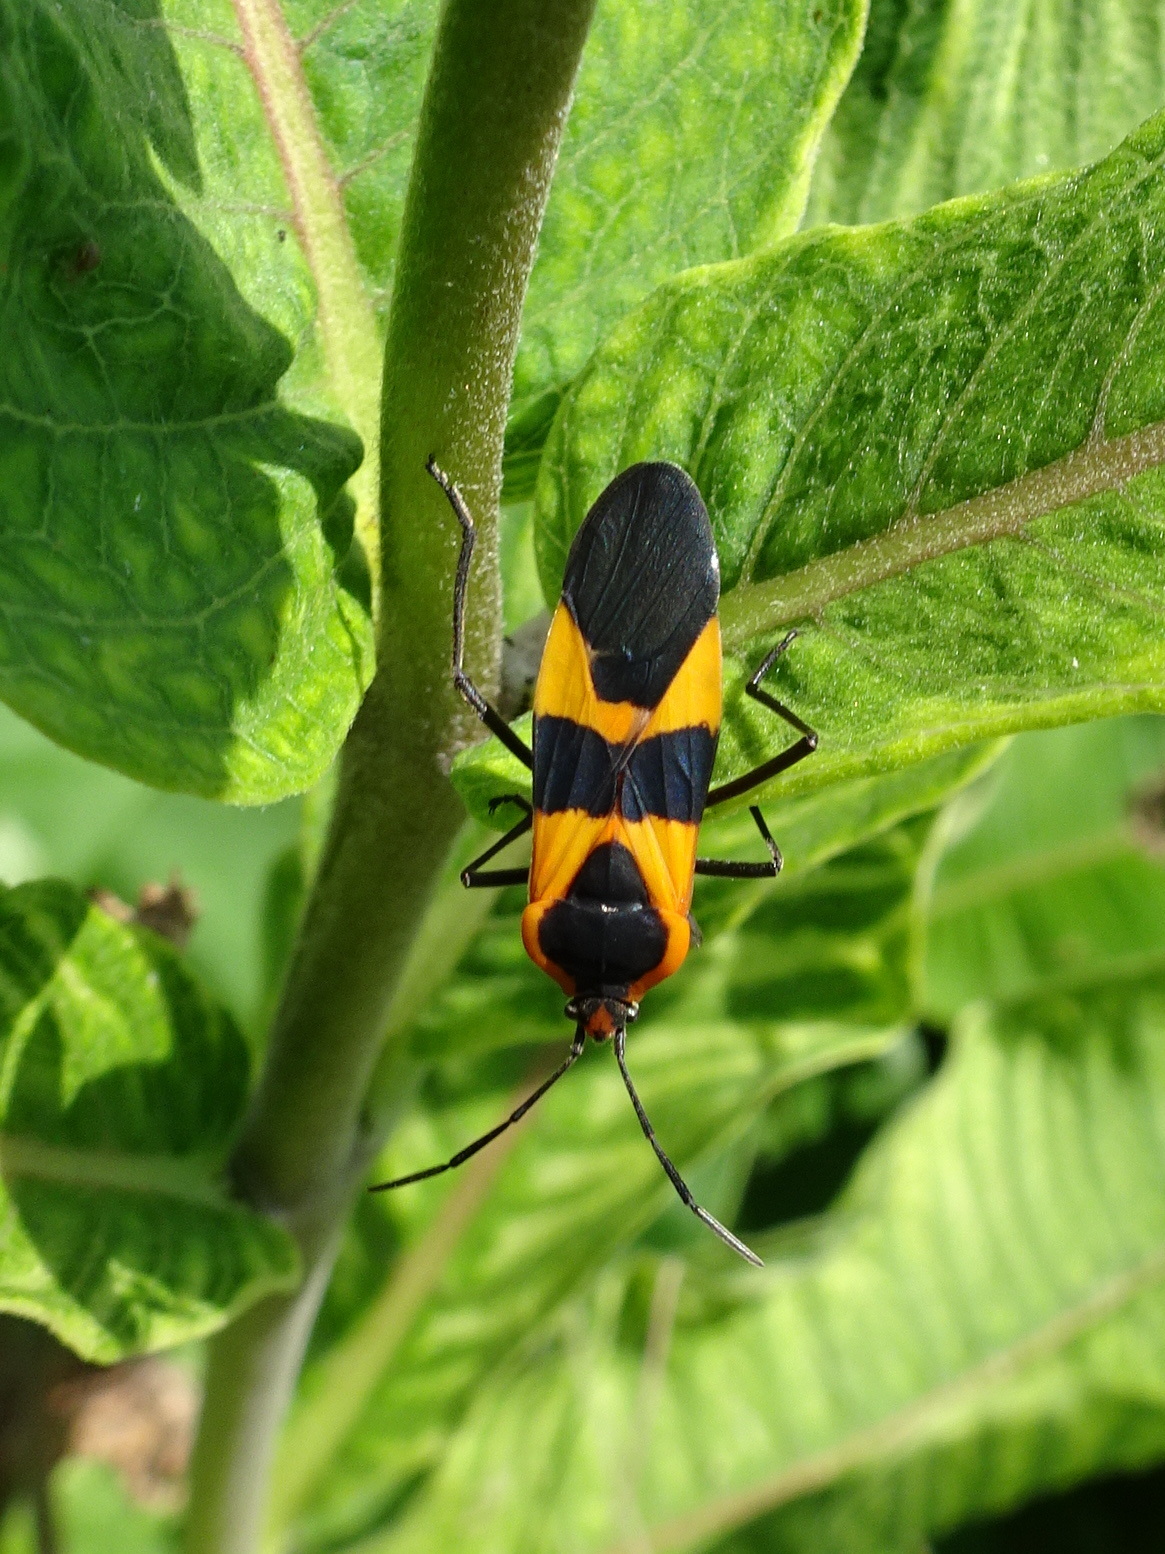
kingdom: Animalia
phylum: Arthropoda
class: Insecta
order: Hemiptera
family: Lygaeidae
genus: Oncopeltus
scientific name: Oncopeltus fasciatus
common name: Large milkweed bug
